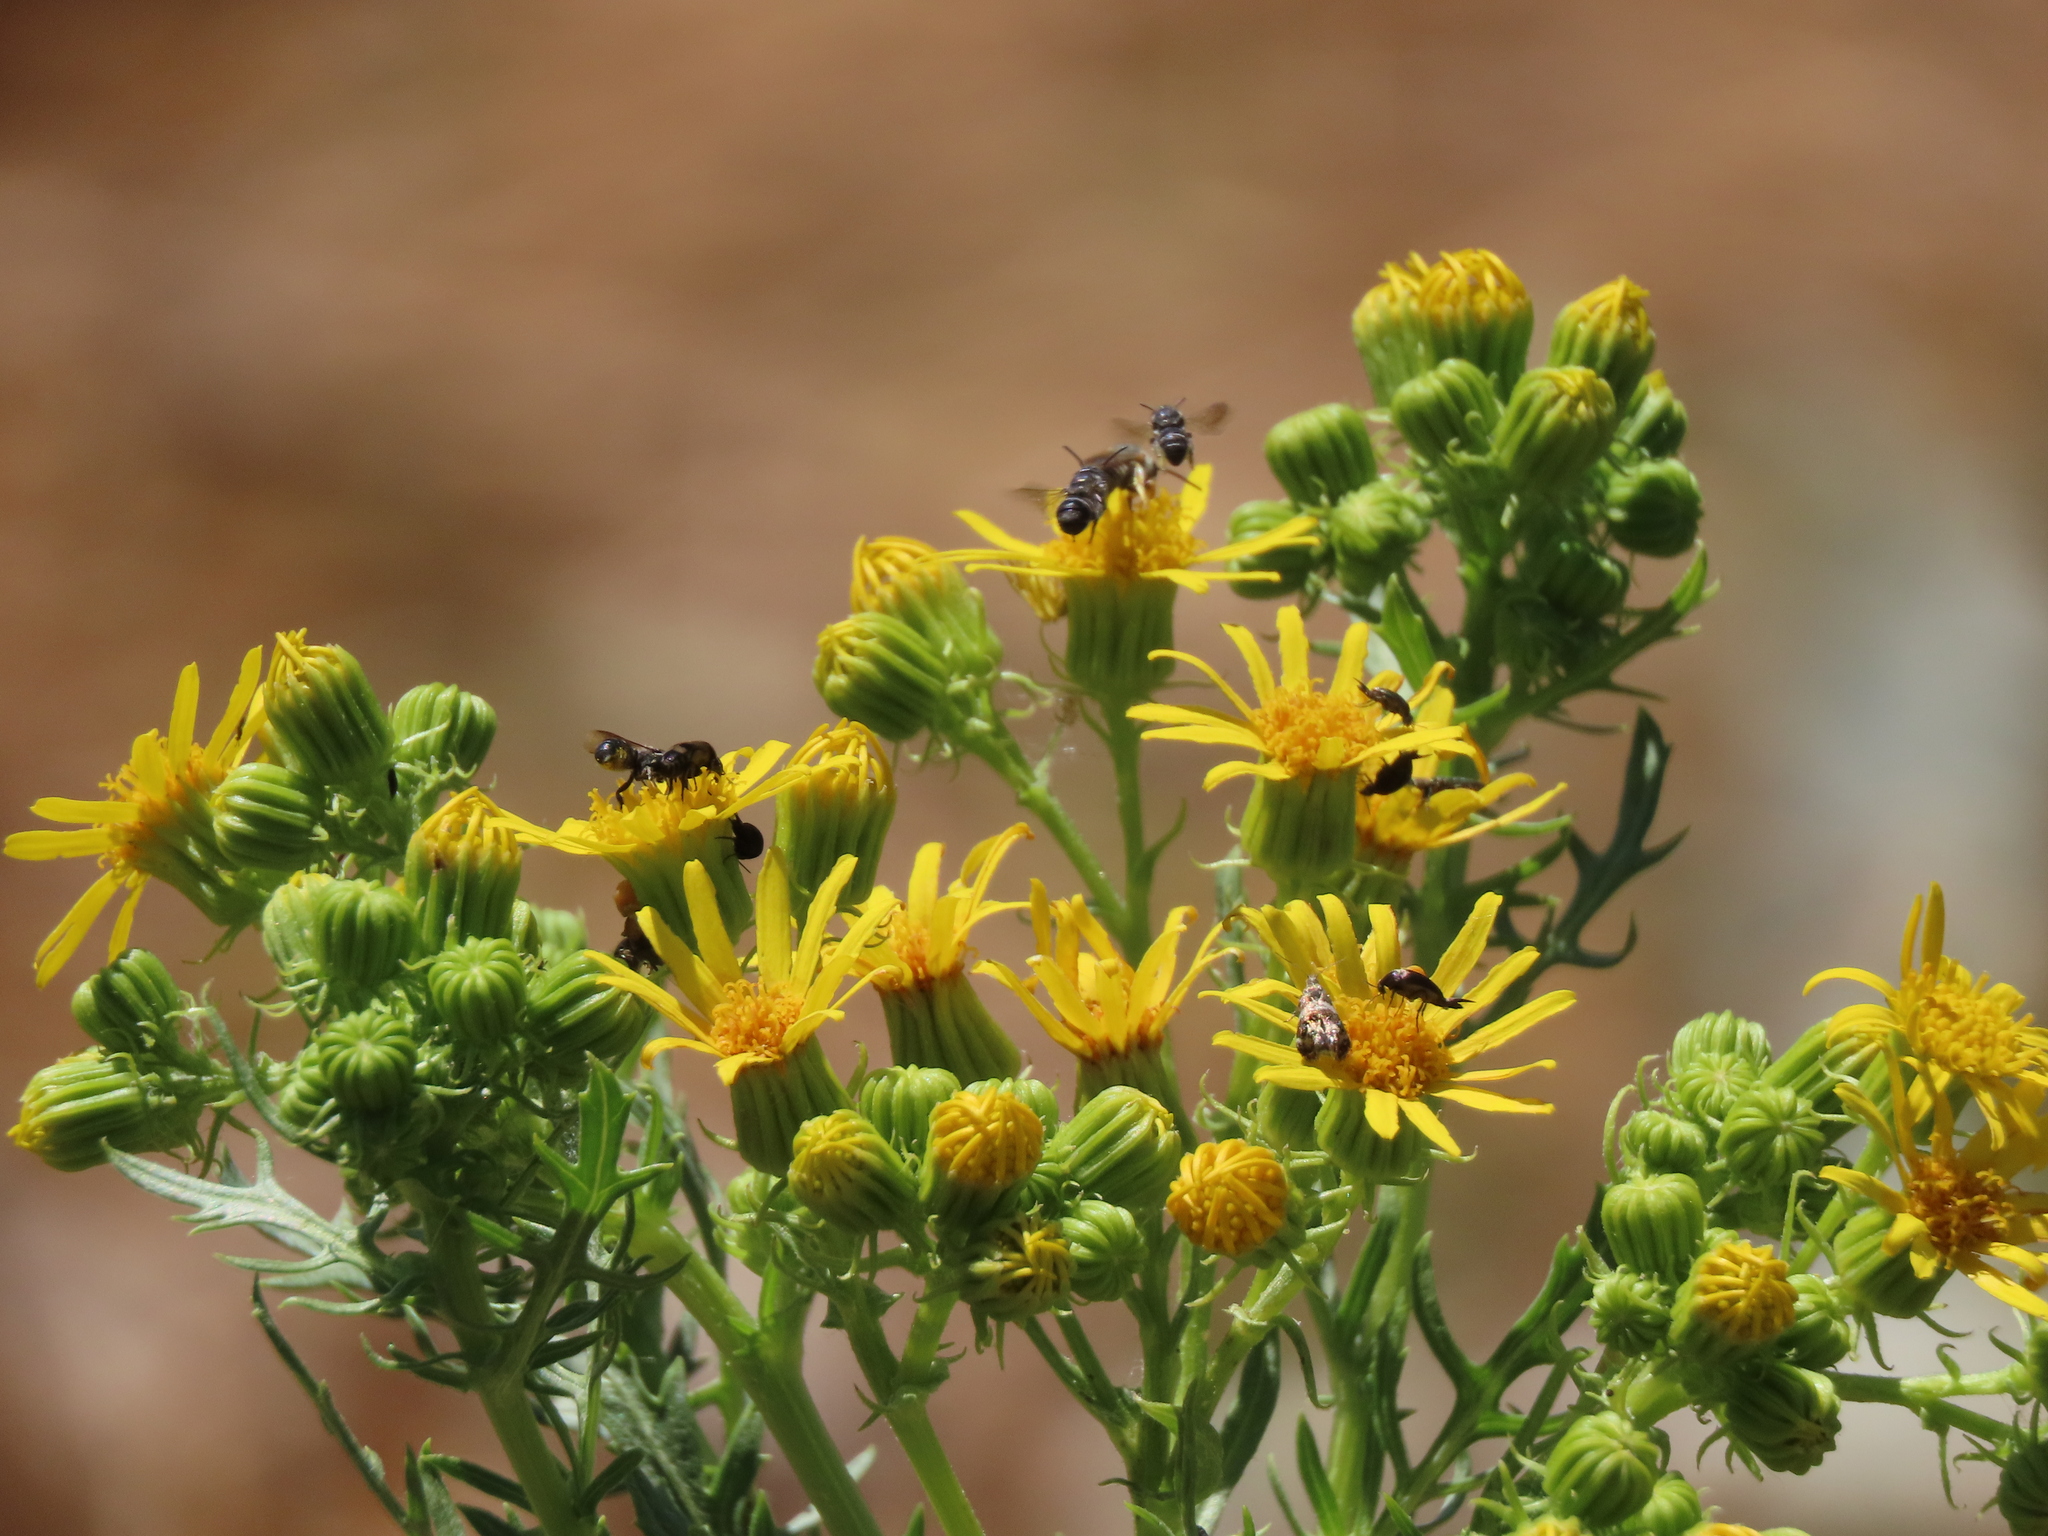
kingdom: Plantae
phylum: Tracheophyta
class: Magnoliopsida
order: Asterales
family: Asteraceae
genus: Jacobaea
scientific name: Jacobaea vulgaris
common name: Stinking willie
